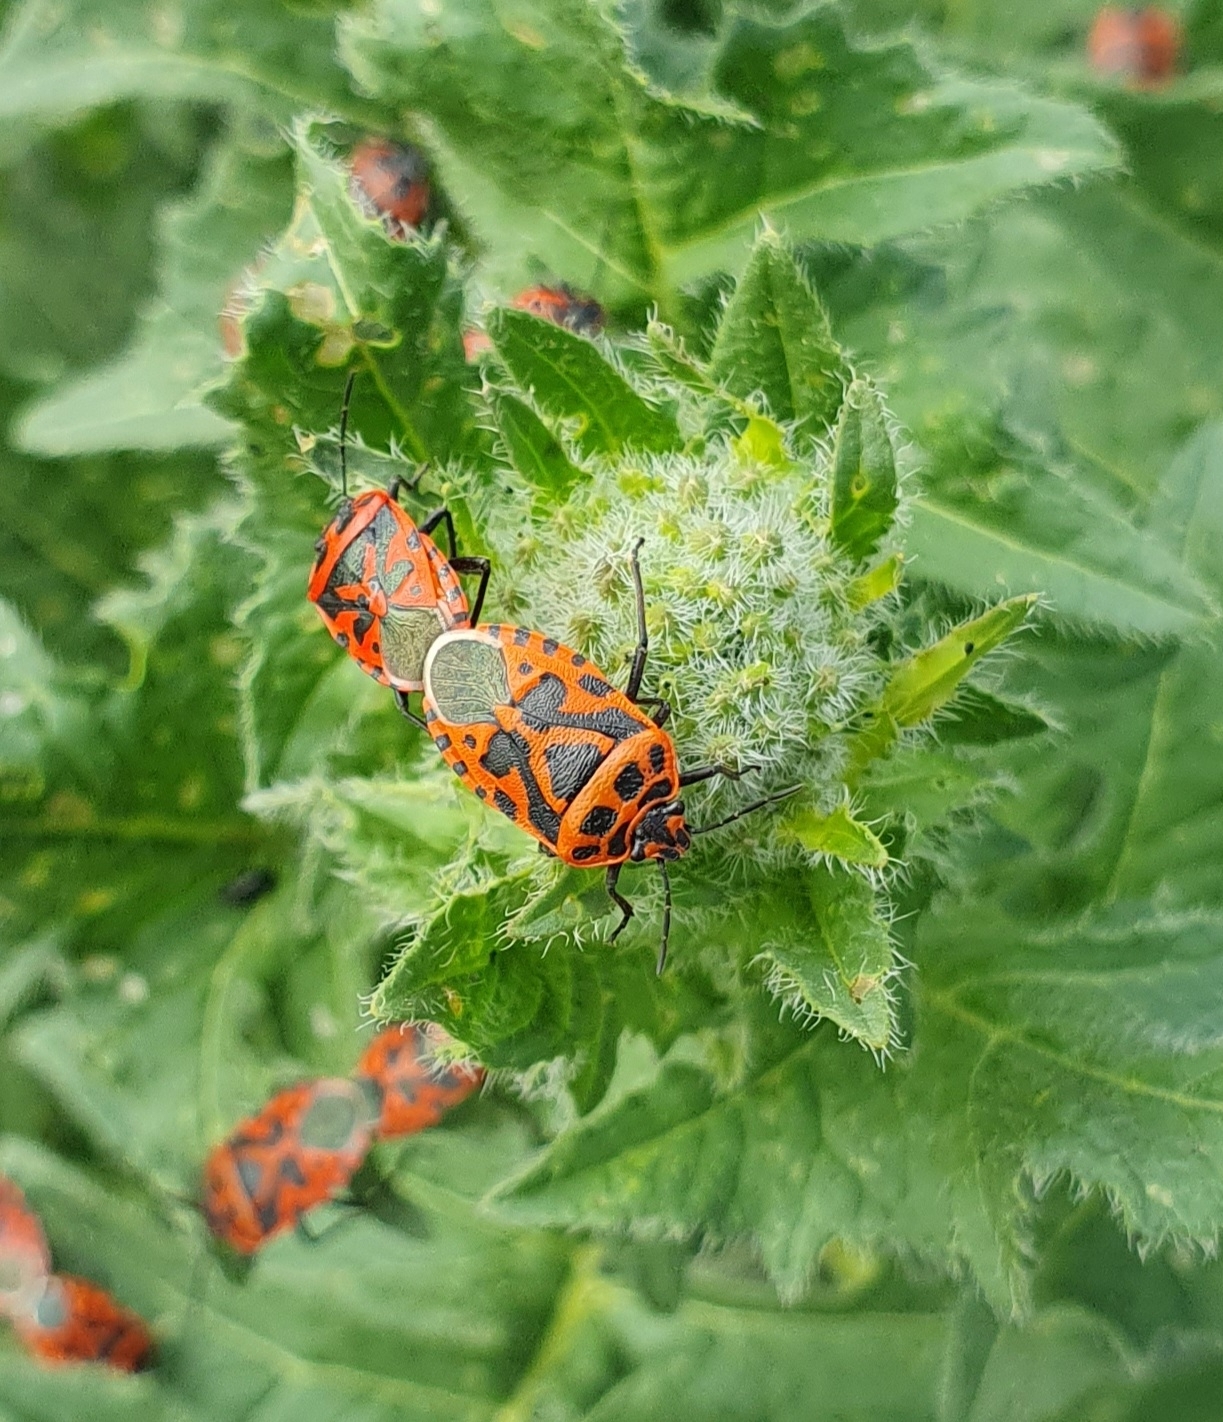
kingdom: Animalia
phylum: Arthropoda
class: Insecta
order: Hemiptera
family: Pentatomidae
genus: Eurydema
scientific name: Eurydema ventralis
